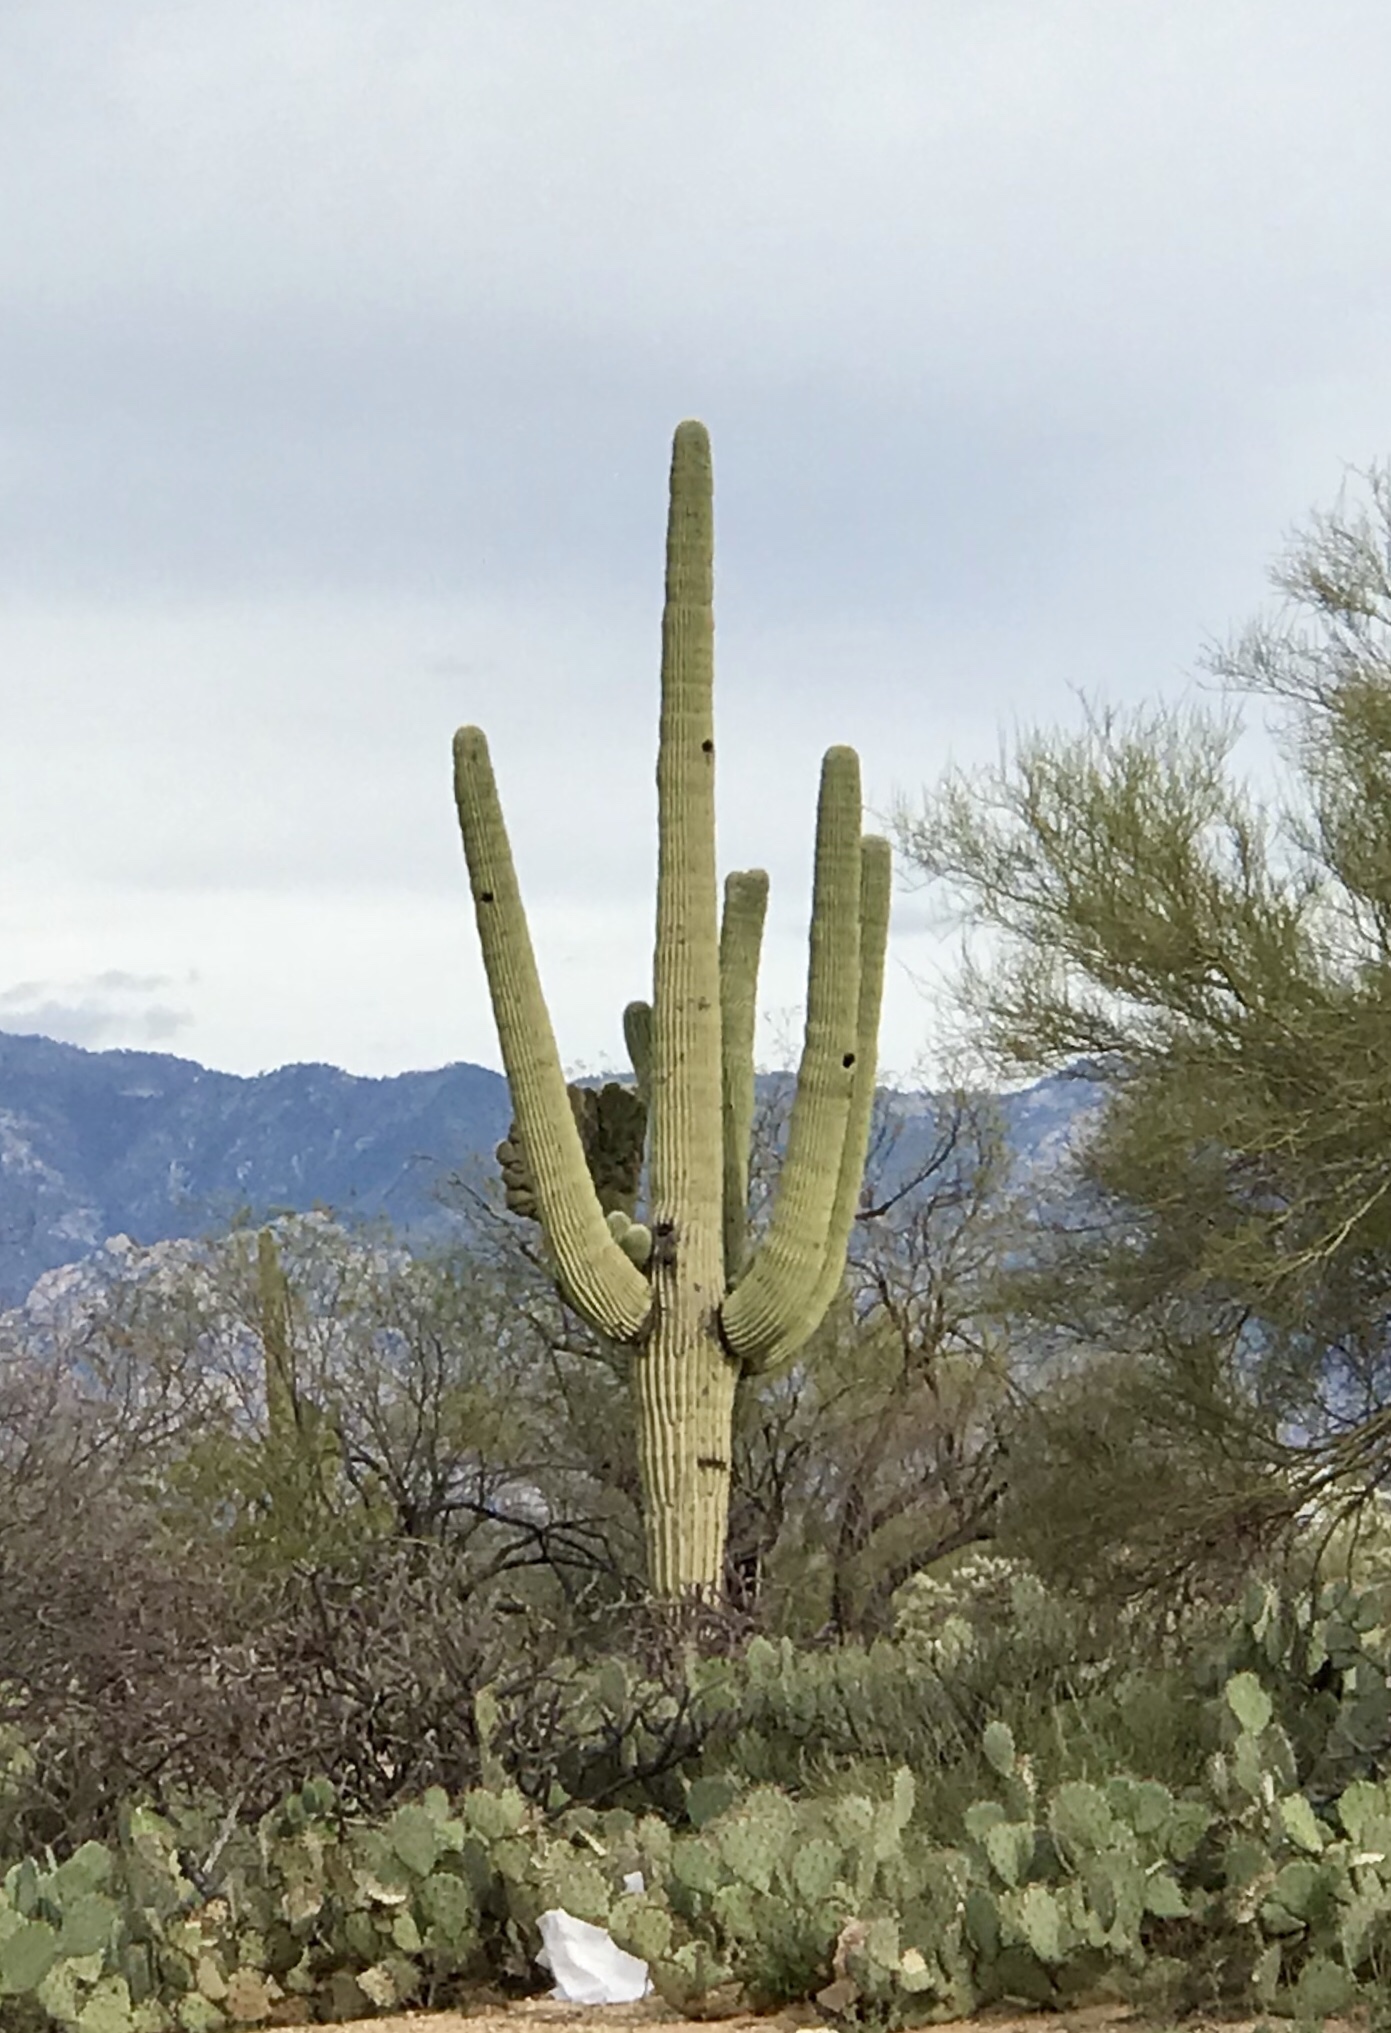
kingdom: Plantae
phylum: Tracheophyta
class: Magnoliopsida
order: Caryophyllales
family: Cactaceae
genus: Carnegiea
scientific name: Carnegiea gigantea
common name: Saguaro
